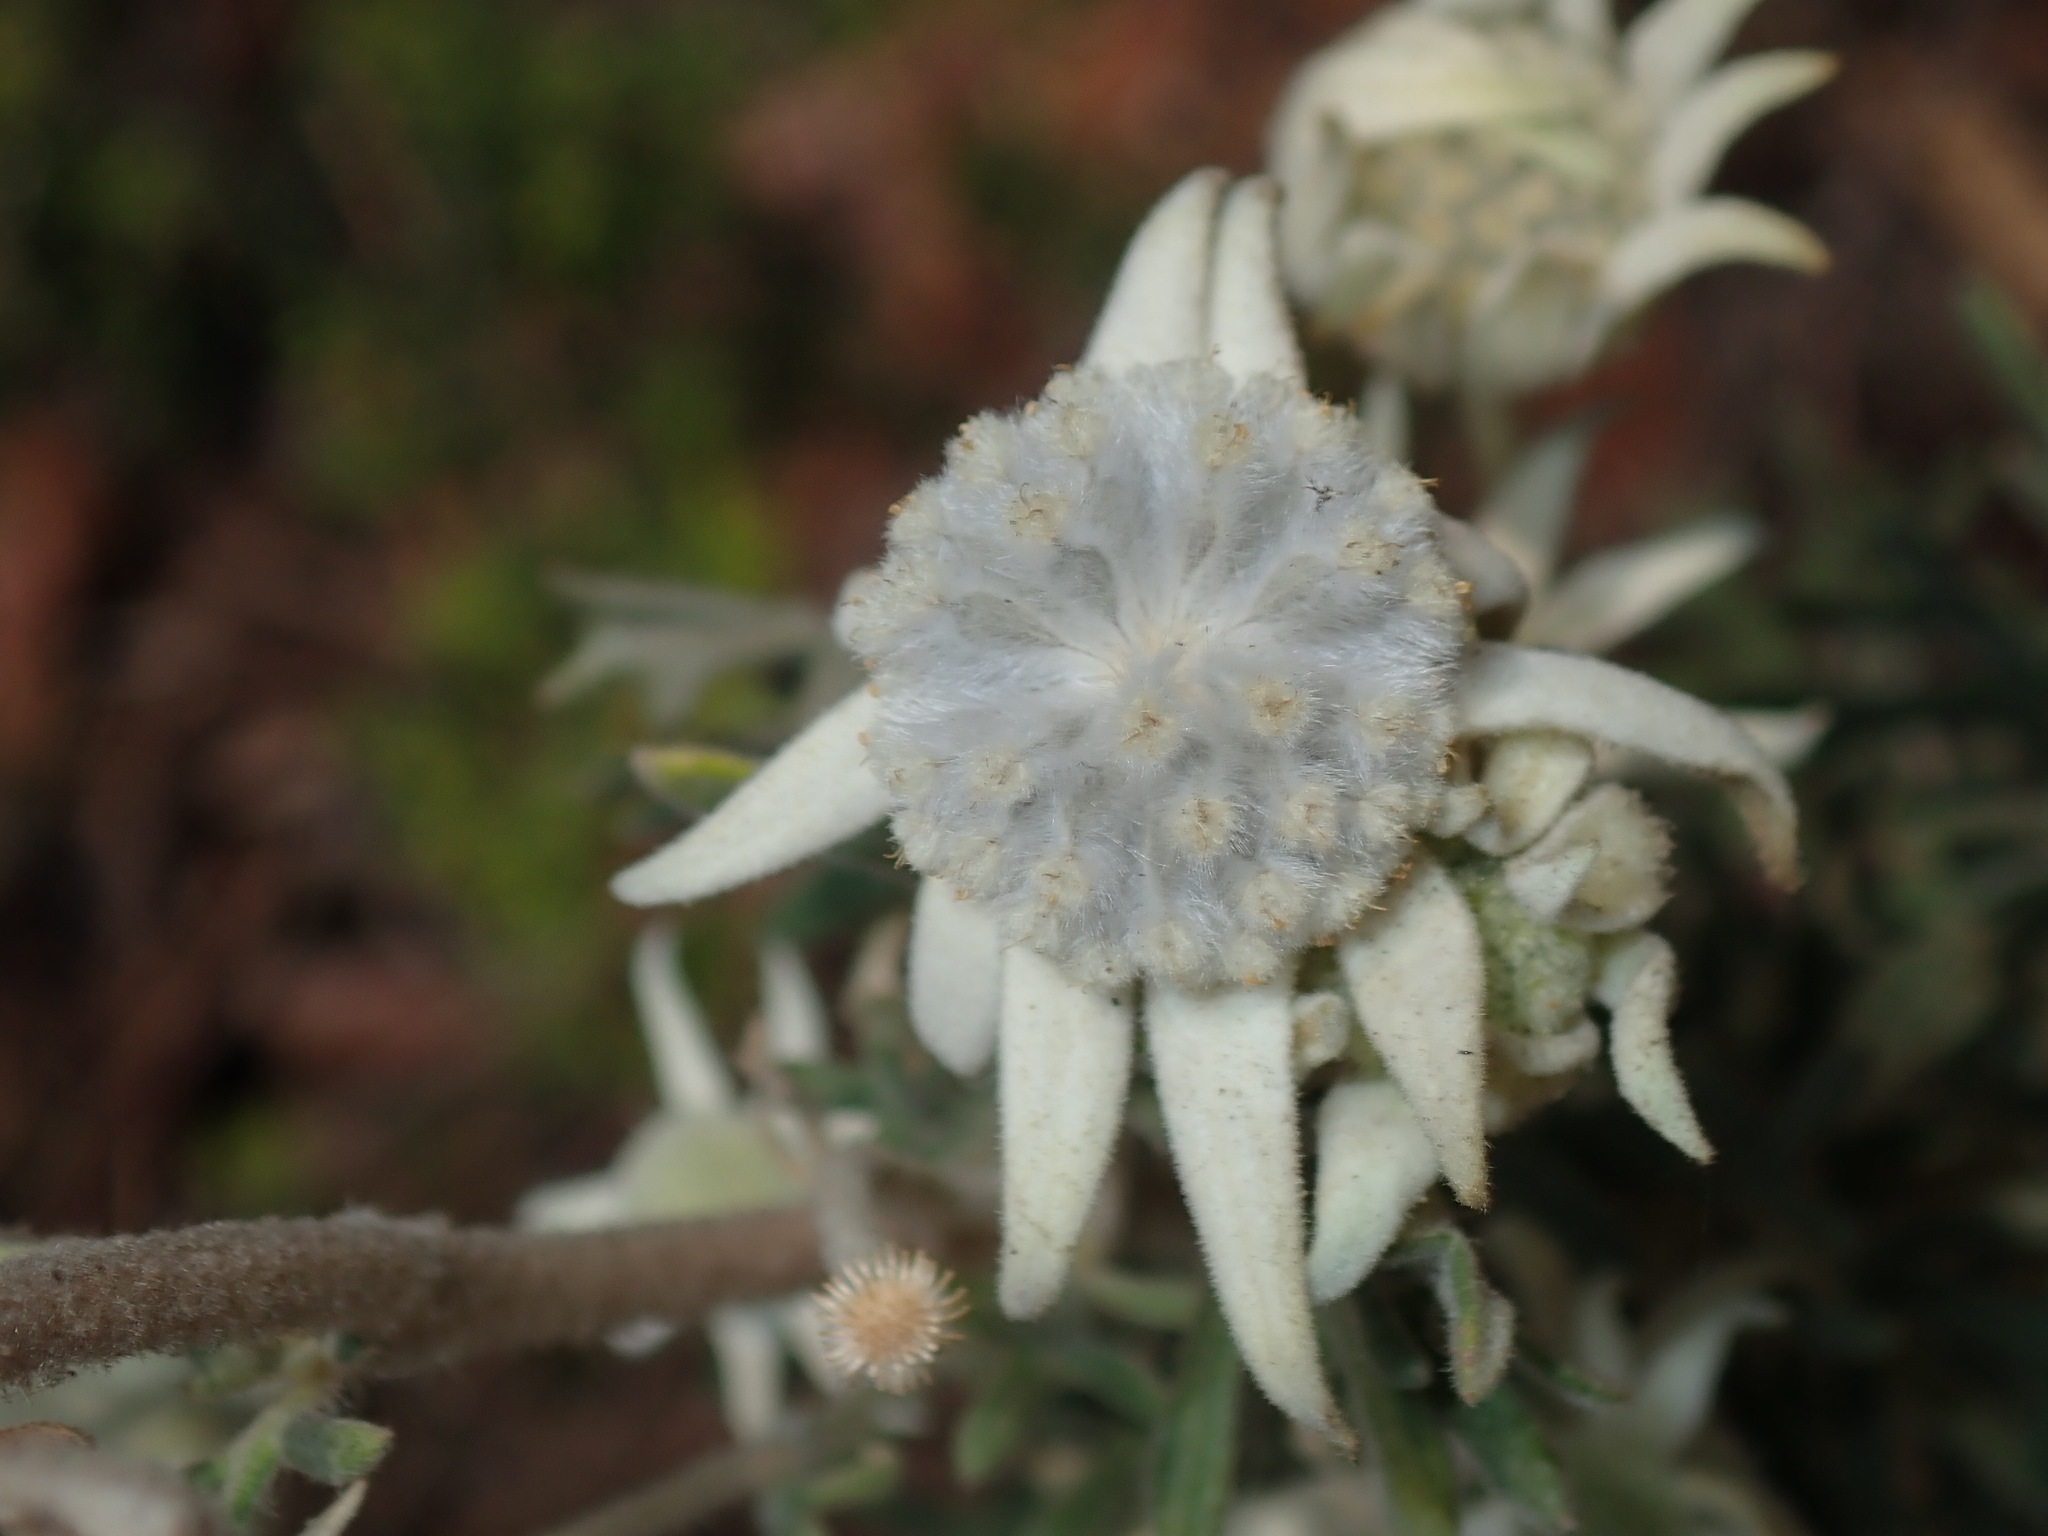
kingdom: Plantae
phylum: Tracheophyta
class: Magnoliopsida
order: Apiales
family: Apiaceae
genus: Actinotus
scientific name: Actinotus helianthi
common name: Flannel-flower
